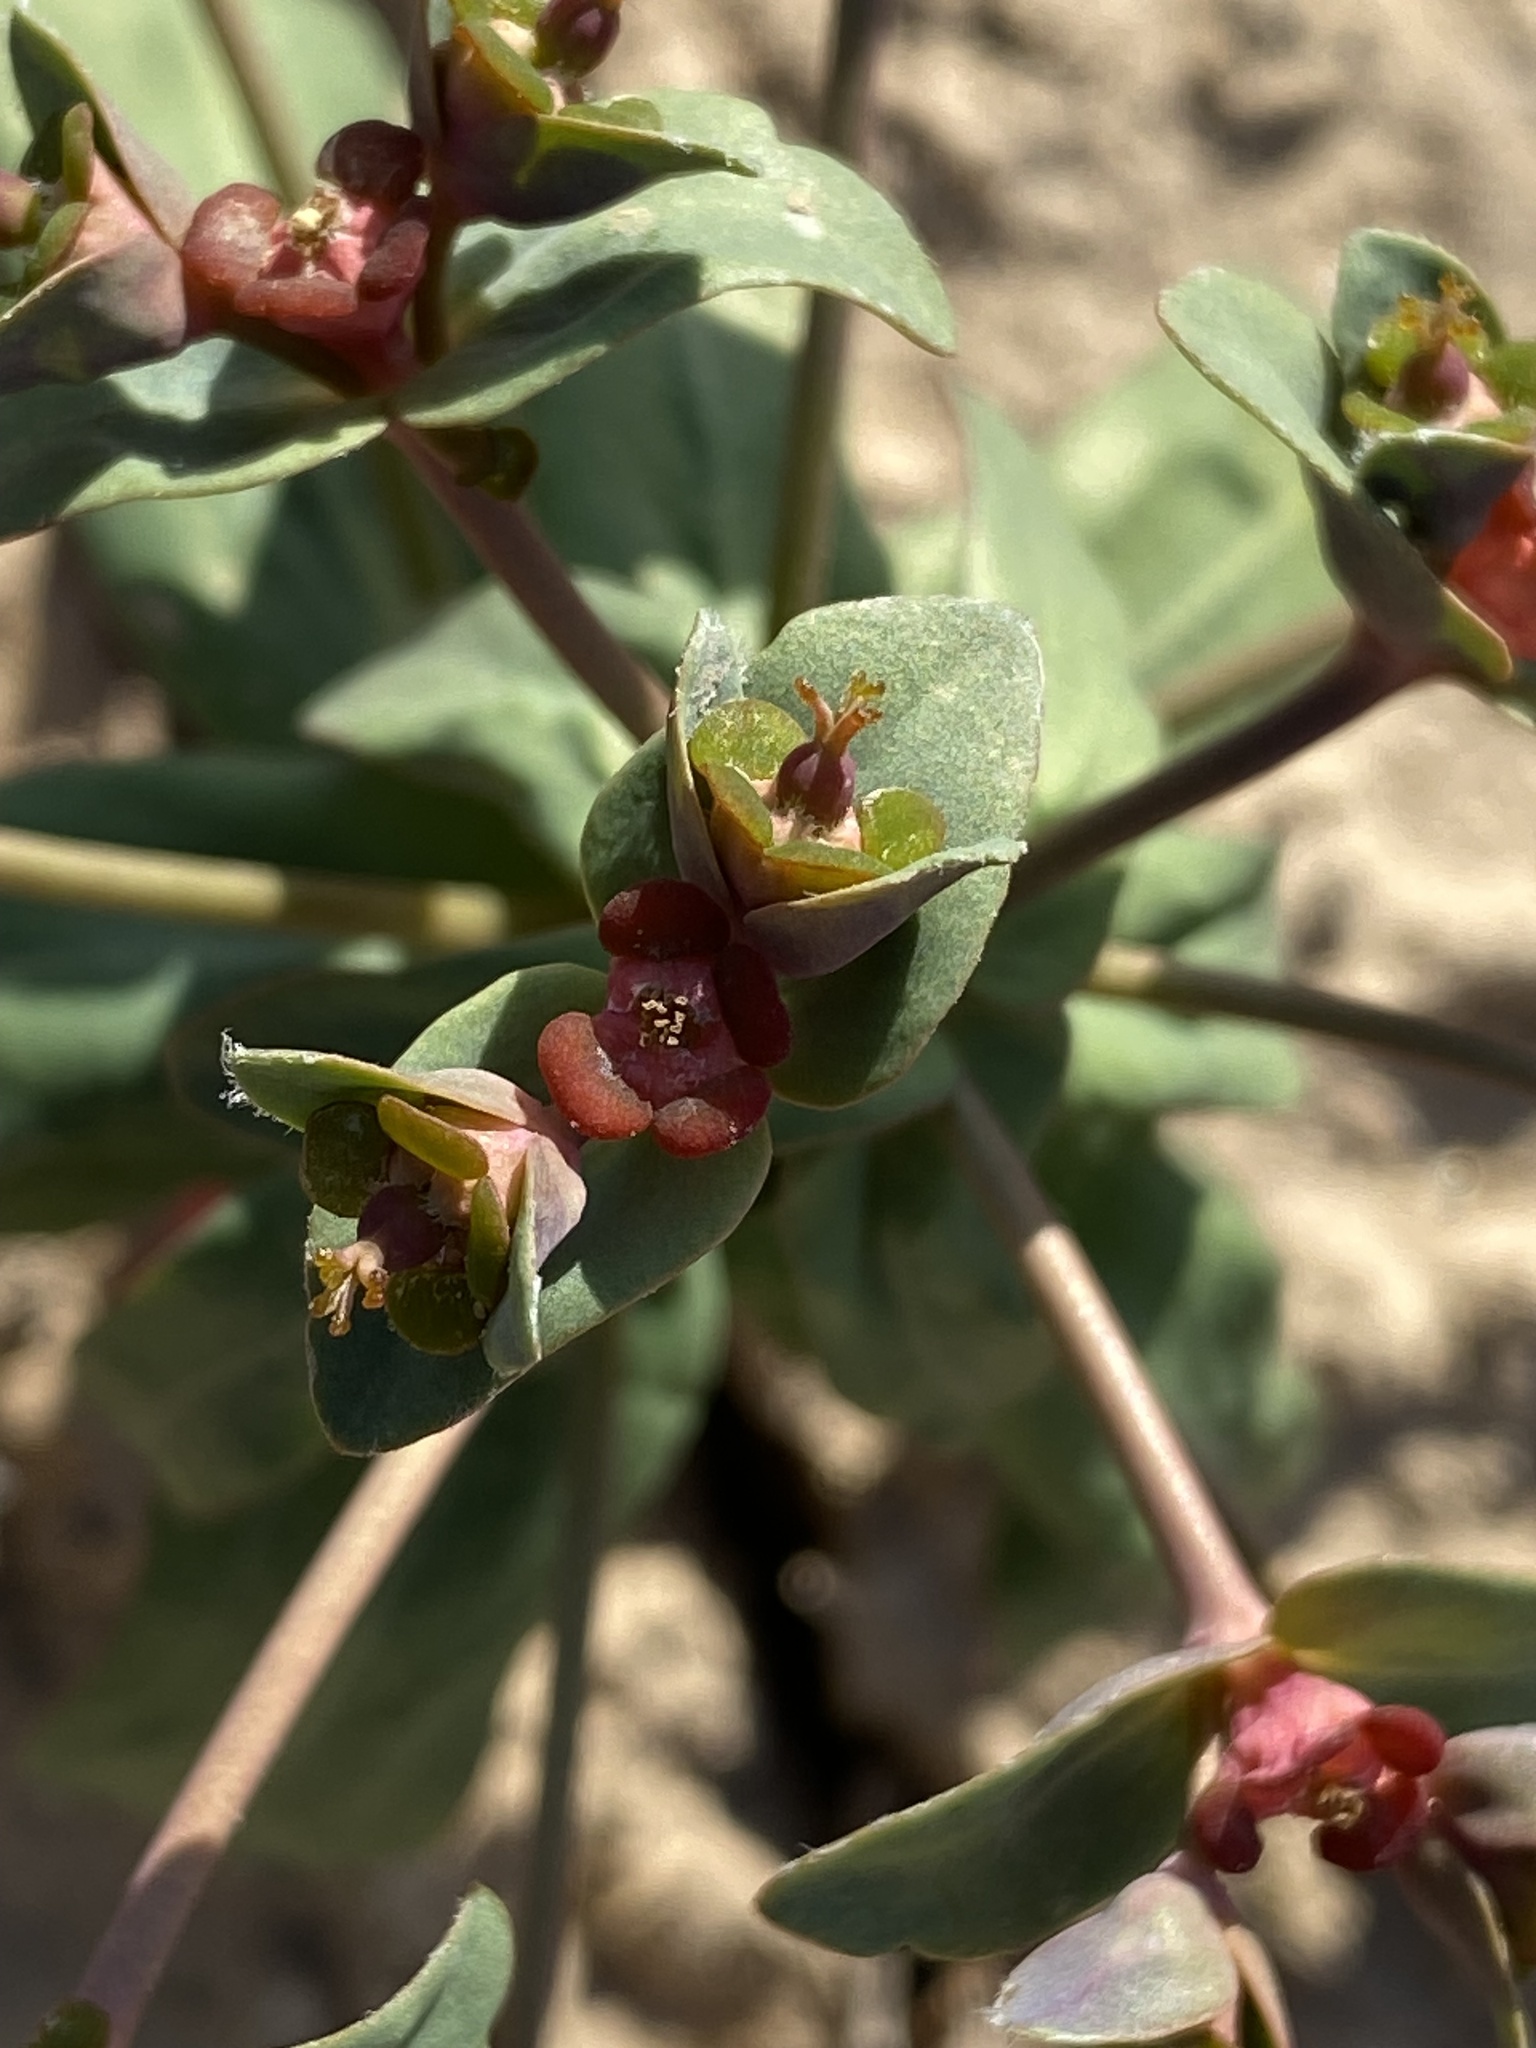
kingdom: Plantae
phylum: Tracheophyta
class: Magnoliopsida
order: Malpighiales
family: Euphorbiaceae
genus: Euphorbia
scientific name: Euphorbia rapulum
